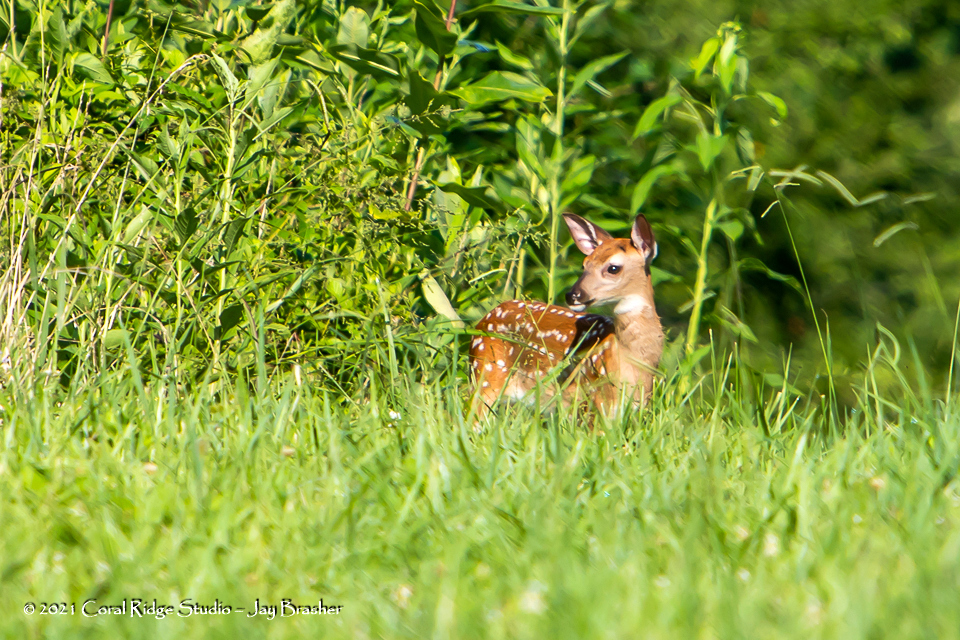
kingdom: Animalia
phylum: Chordata
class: Mammalia
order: Artiodactyla
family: Cervidae
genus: Odocoileus
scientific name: Odocoileus virginianus
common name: White-tailed deer
